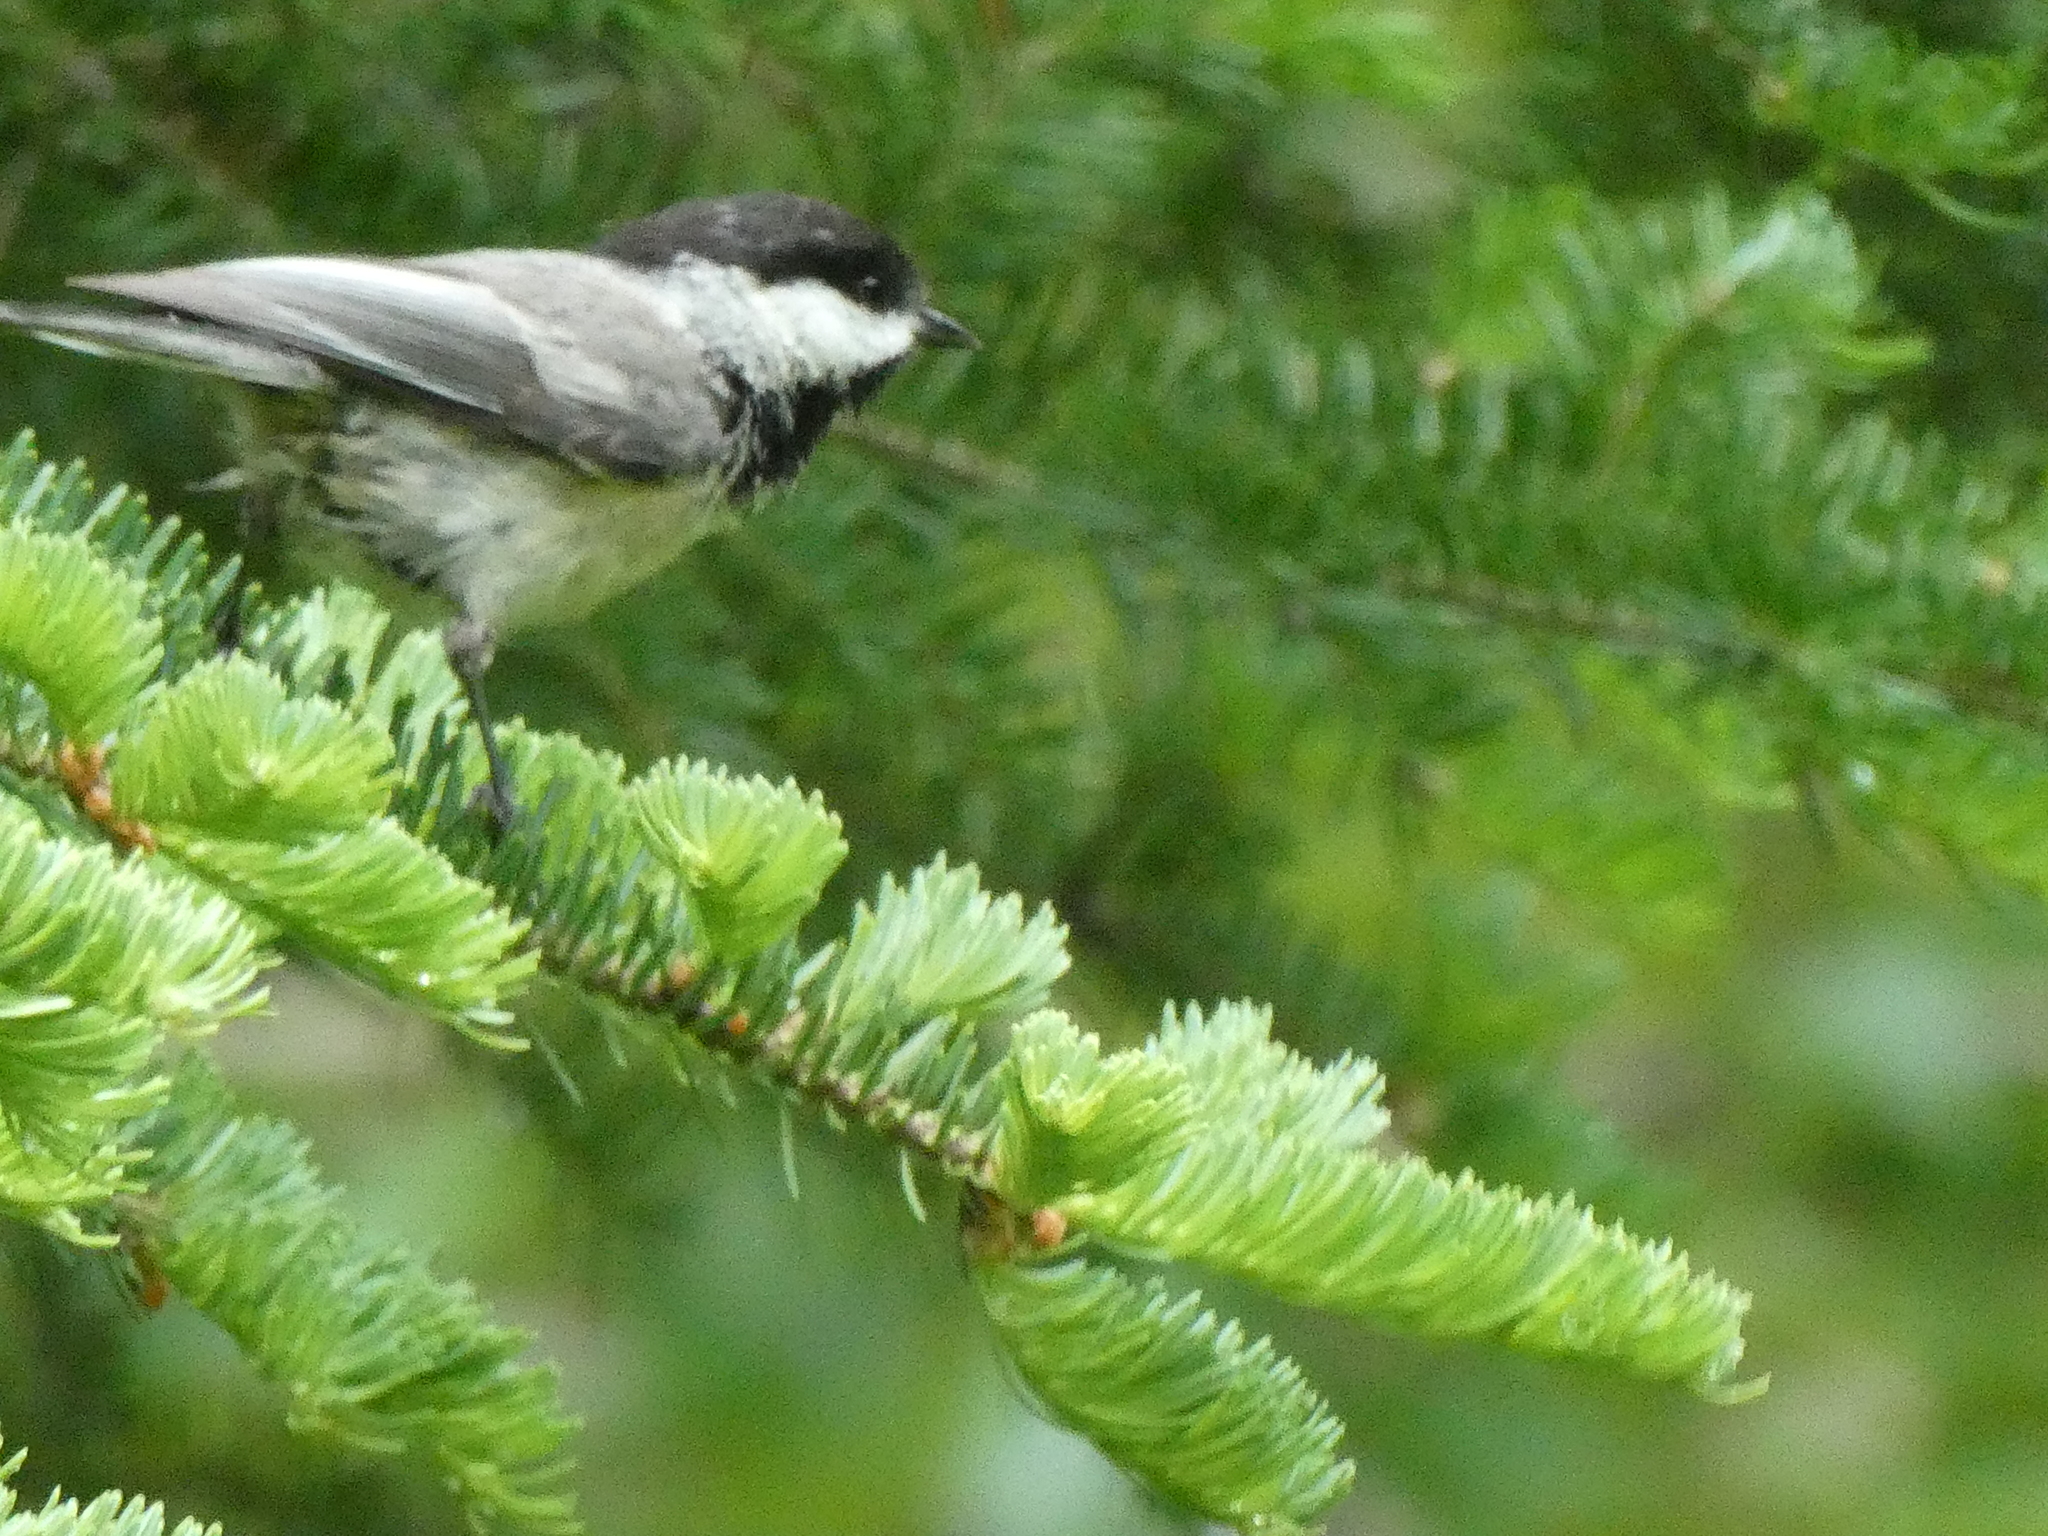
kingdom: Animalia
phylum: Chordata
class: Aves
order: Passeriformes
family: Paridae
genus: Poecile
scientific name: Poecile atricapillus
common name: Black-capped chickadee
